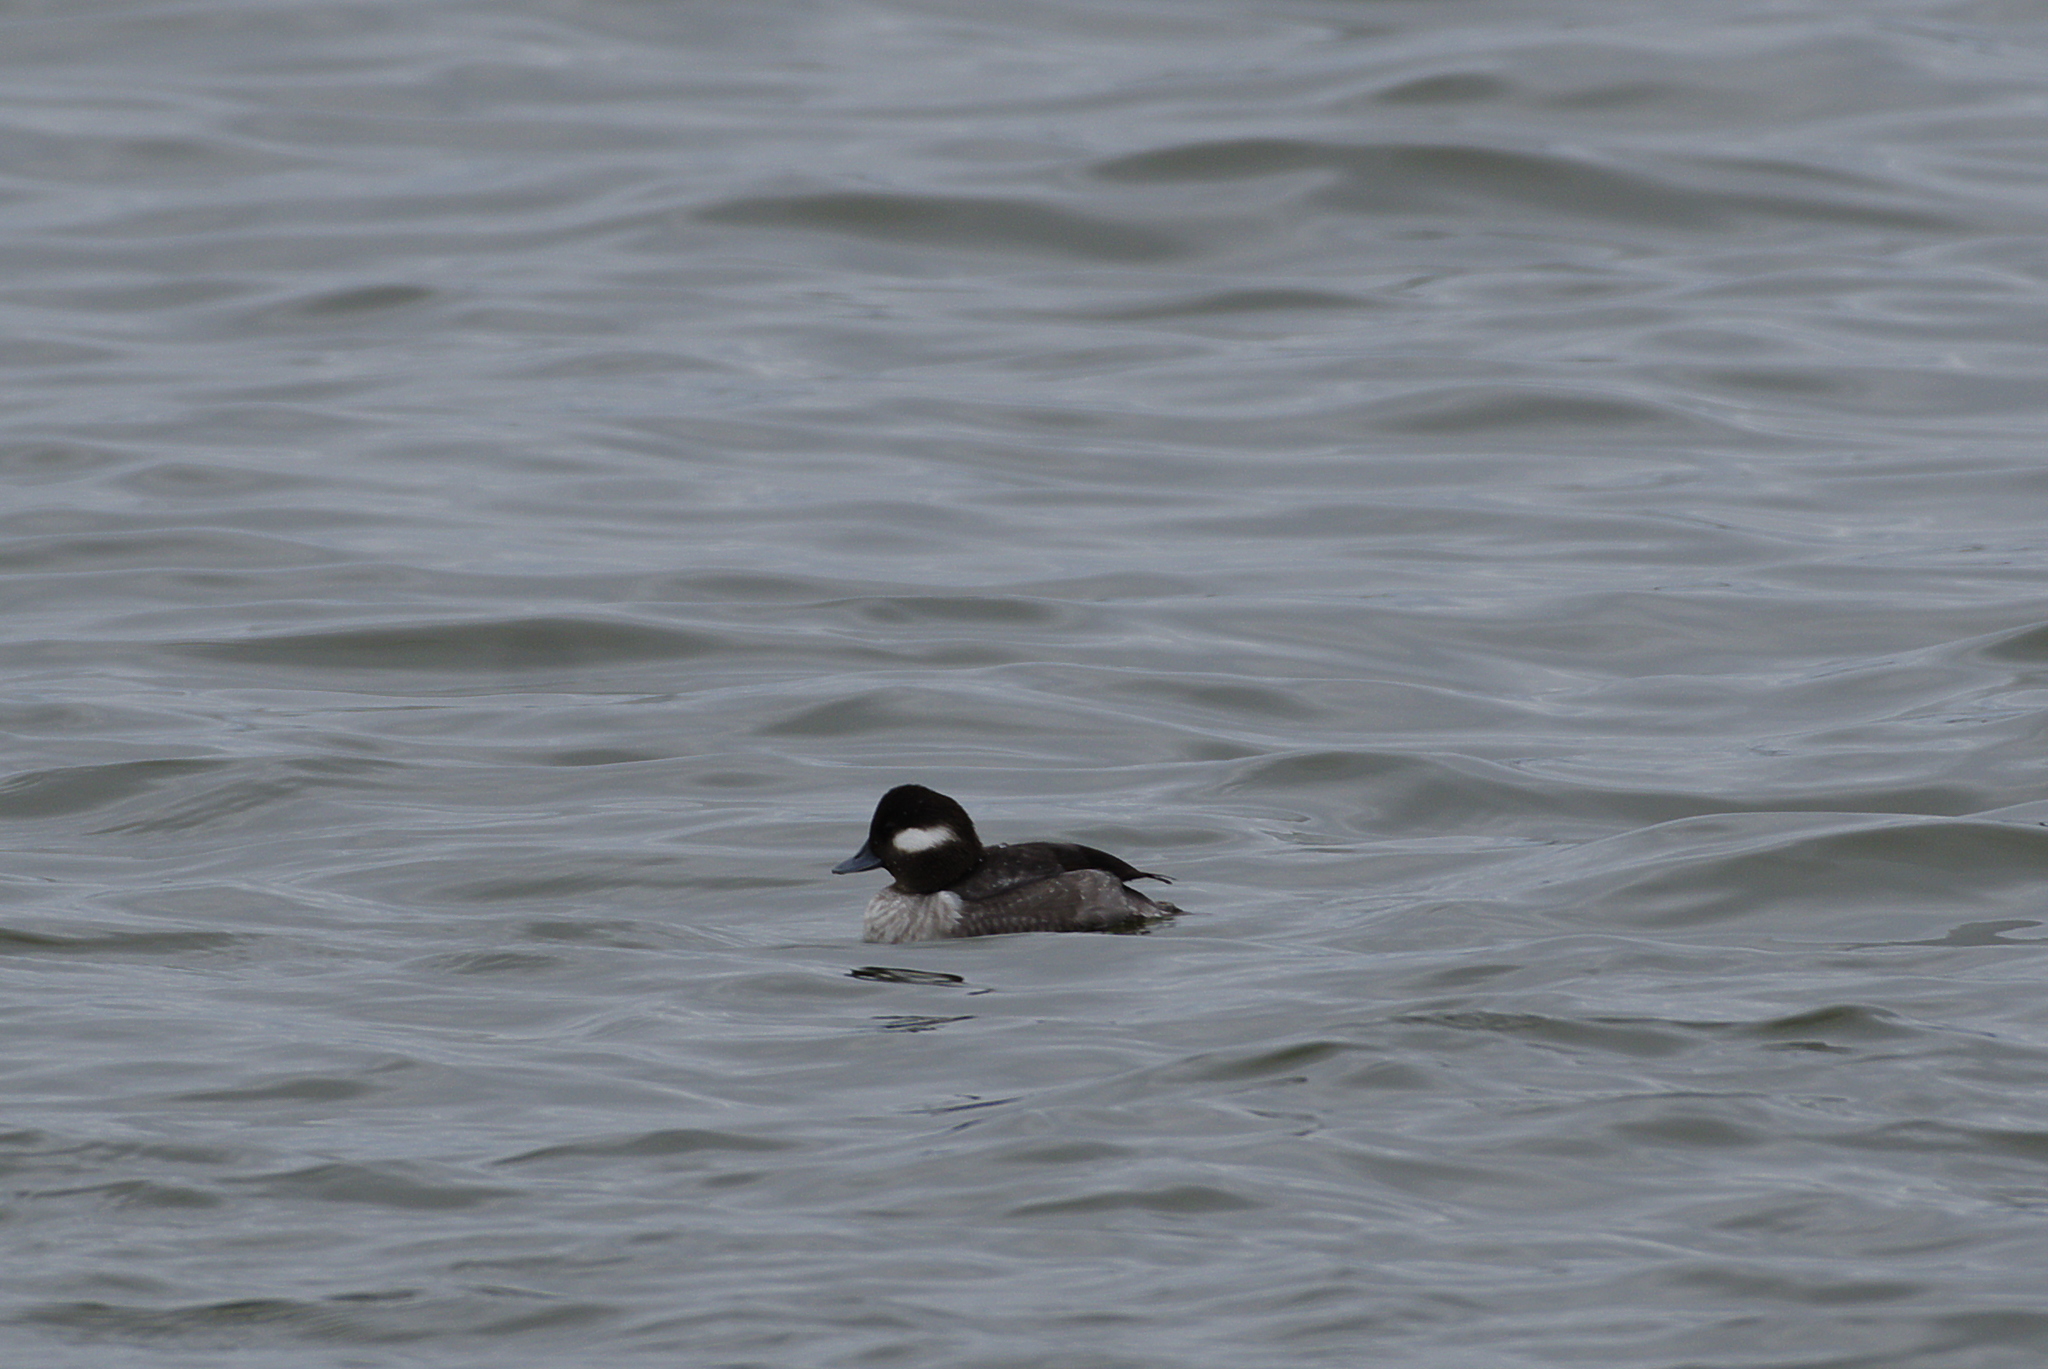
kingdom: Animalia
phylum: Chordata
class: Aves
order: Anseriformes
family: Anatidae
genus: Bucephala
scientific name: Bucephala albeola
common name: Bufflehead
